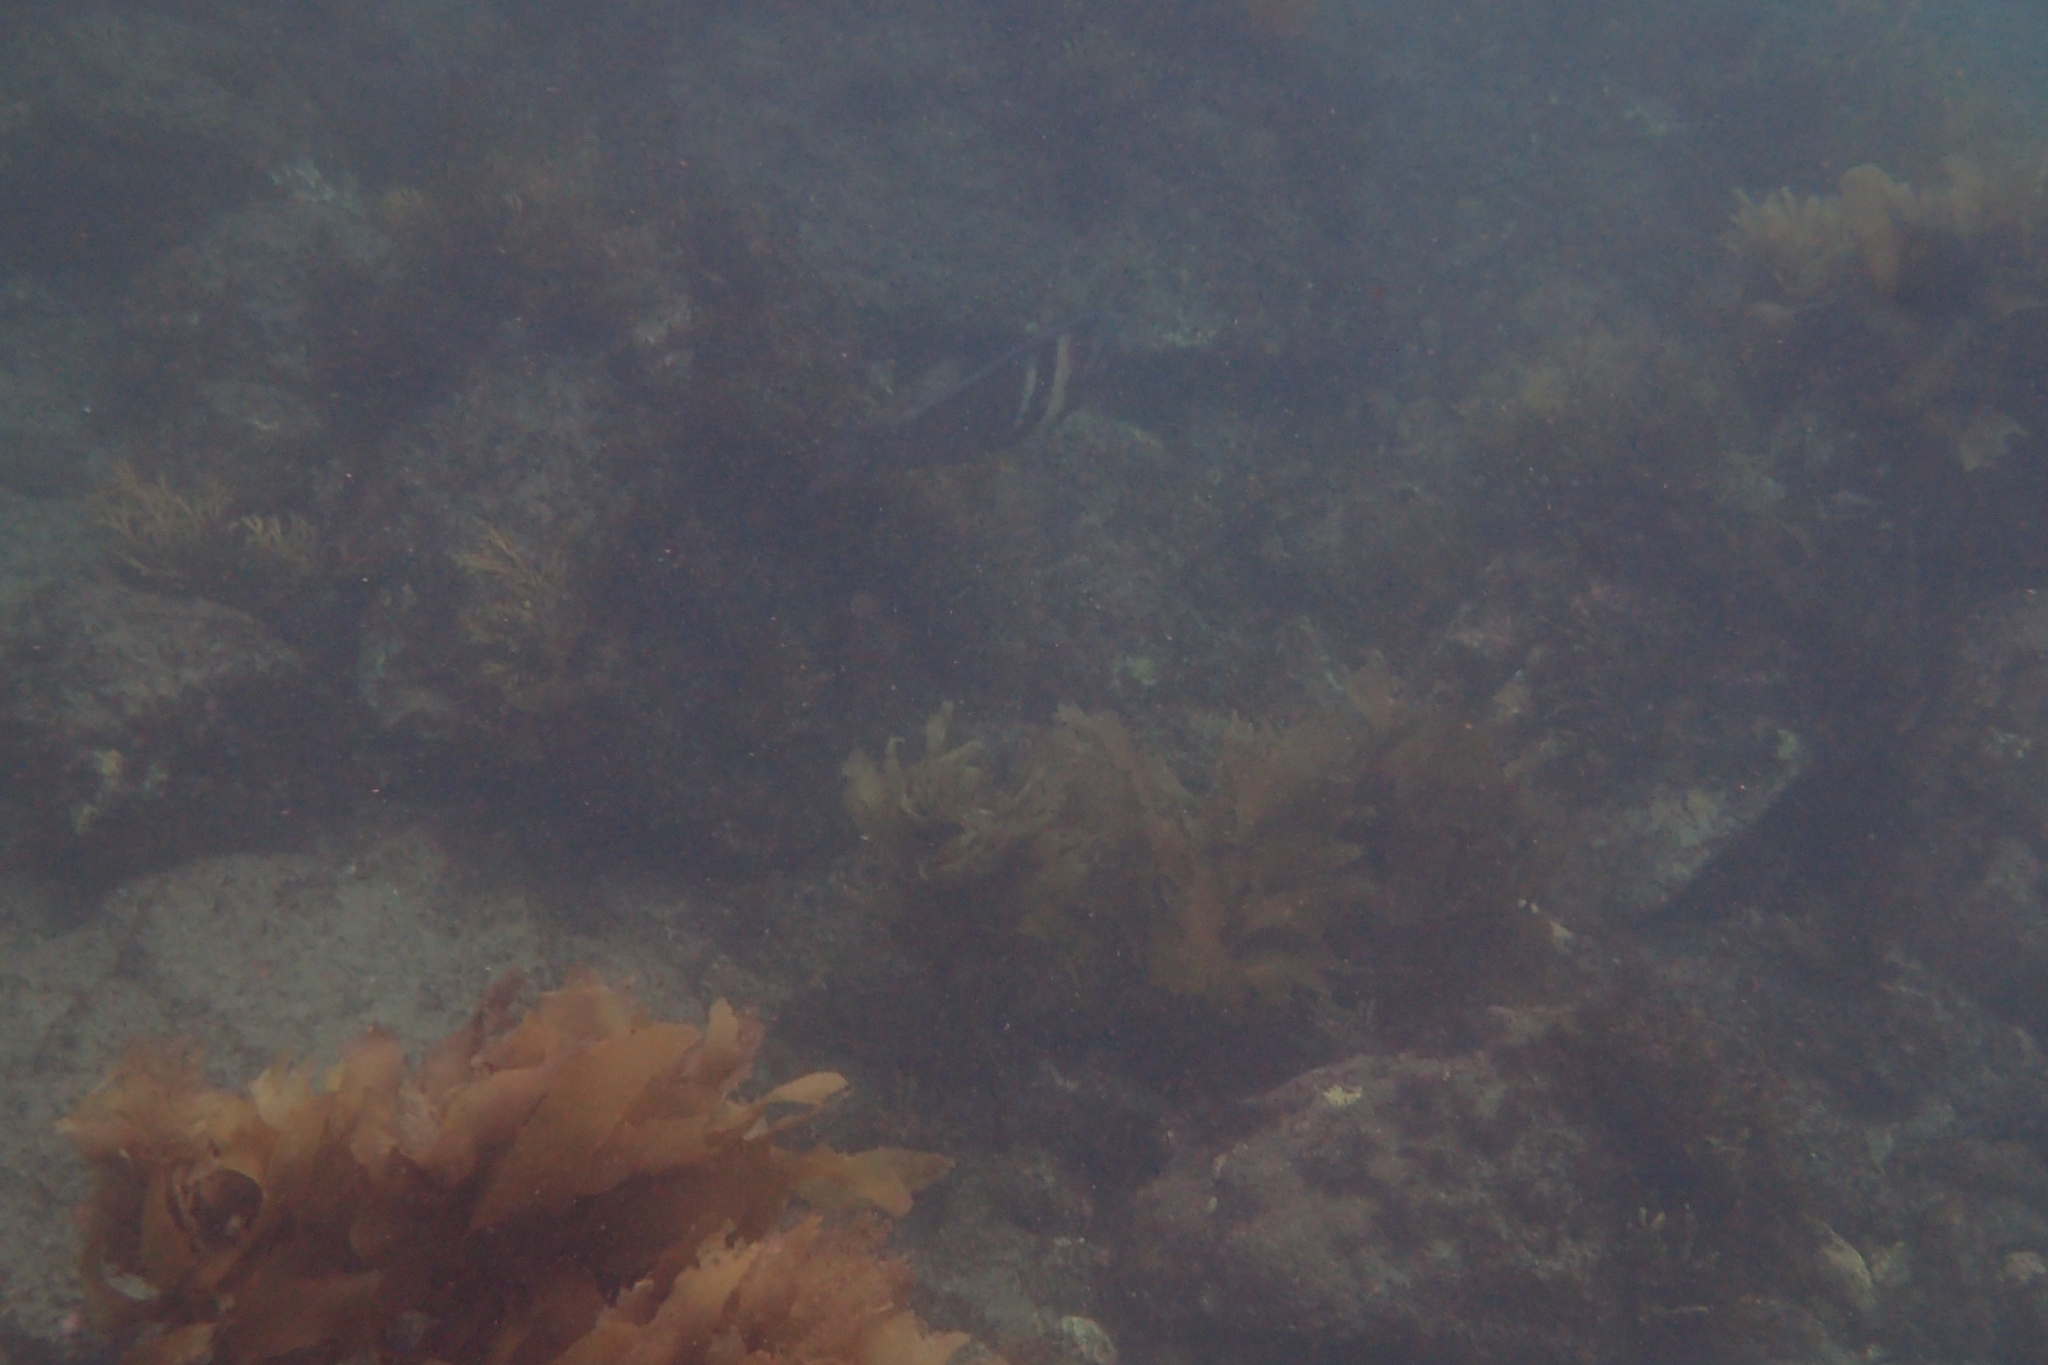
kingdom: Animalia
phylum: Chordata
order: Perciformes
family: Labridae
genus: Coris
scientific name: Coris sandeyeri
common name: Sandager's wrasse
